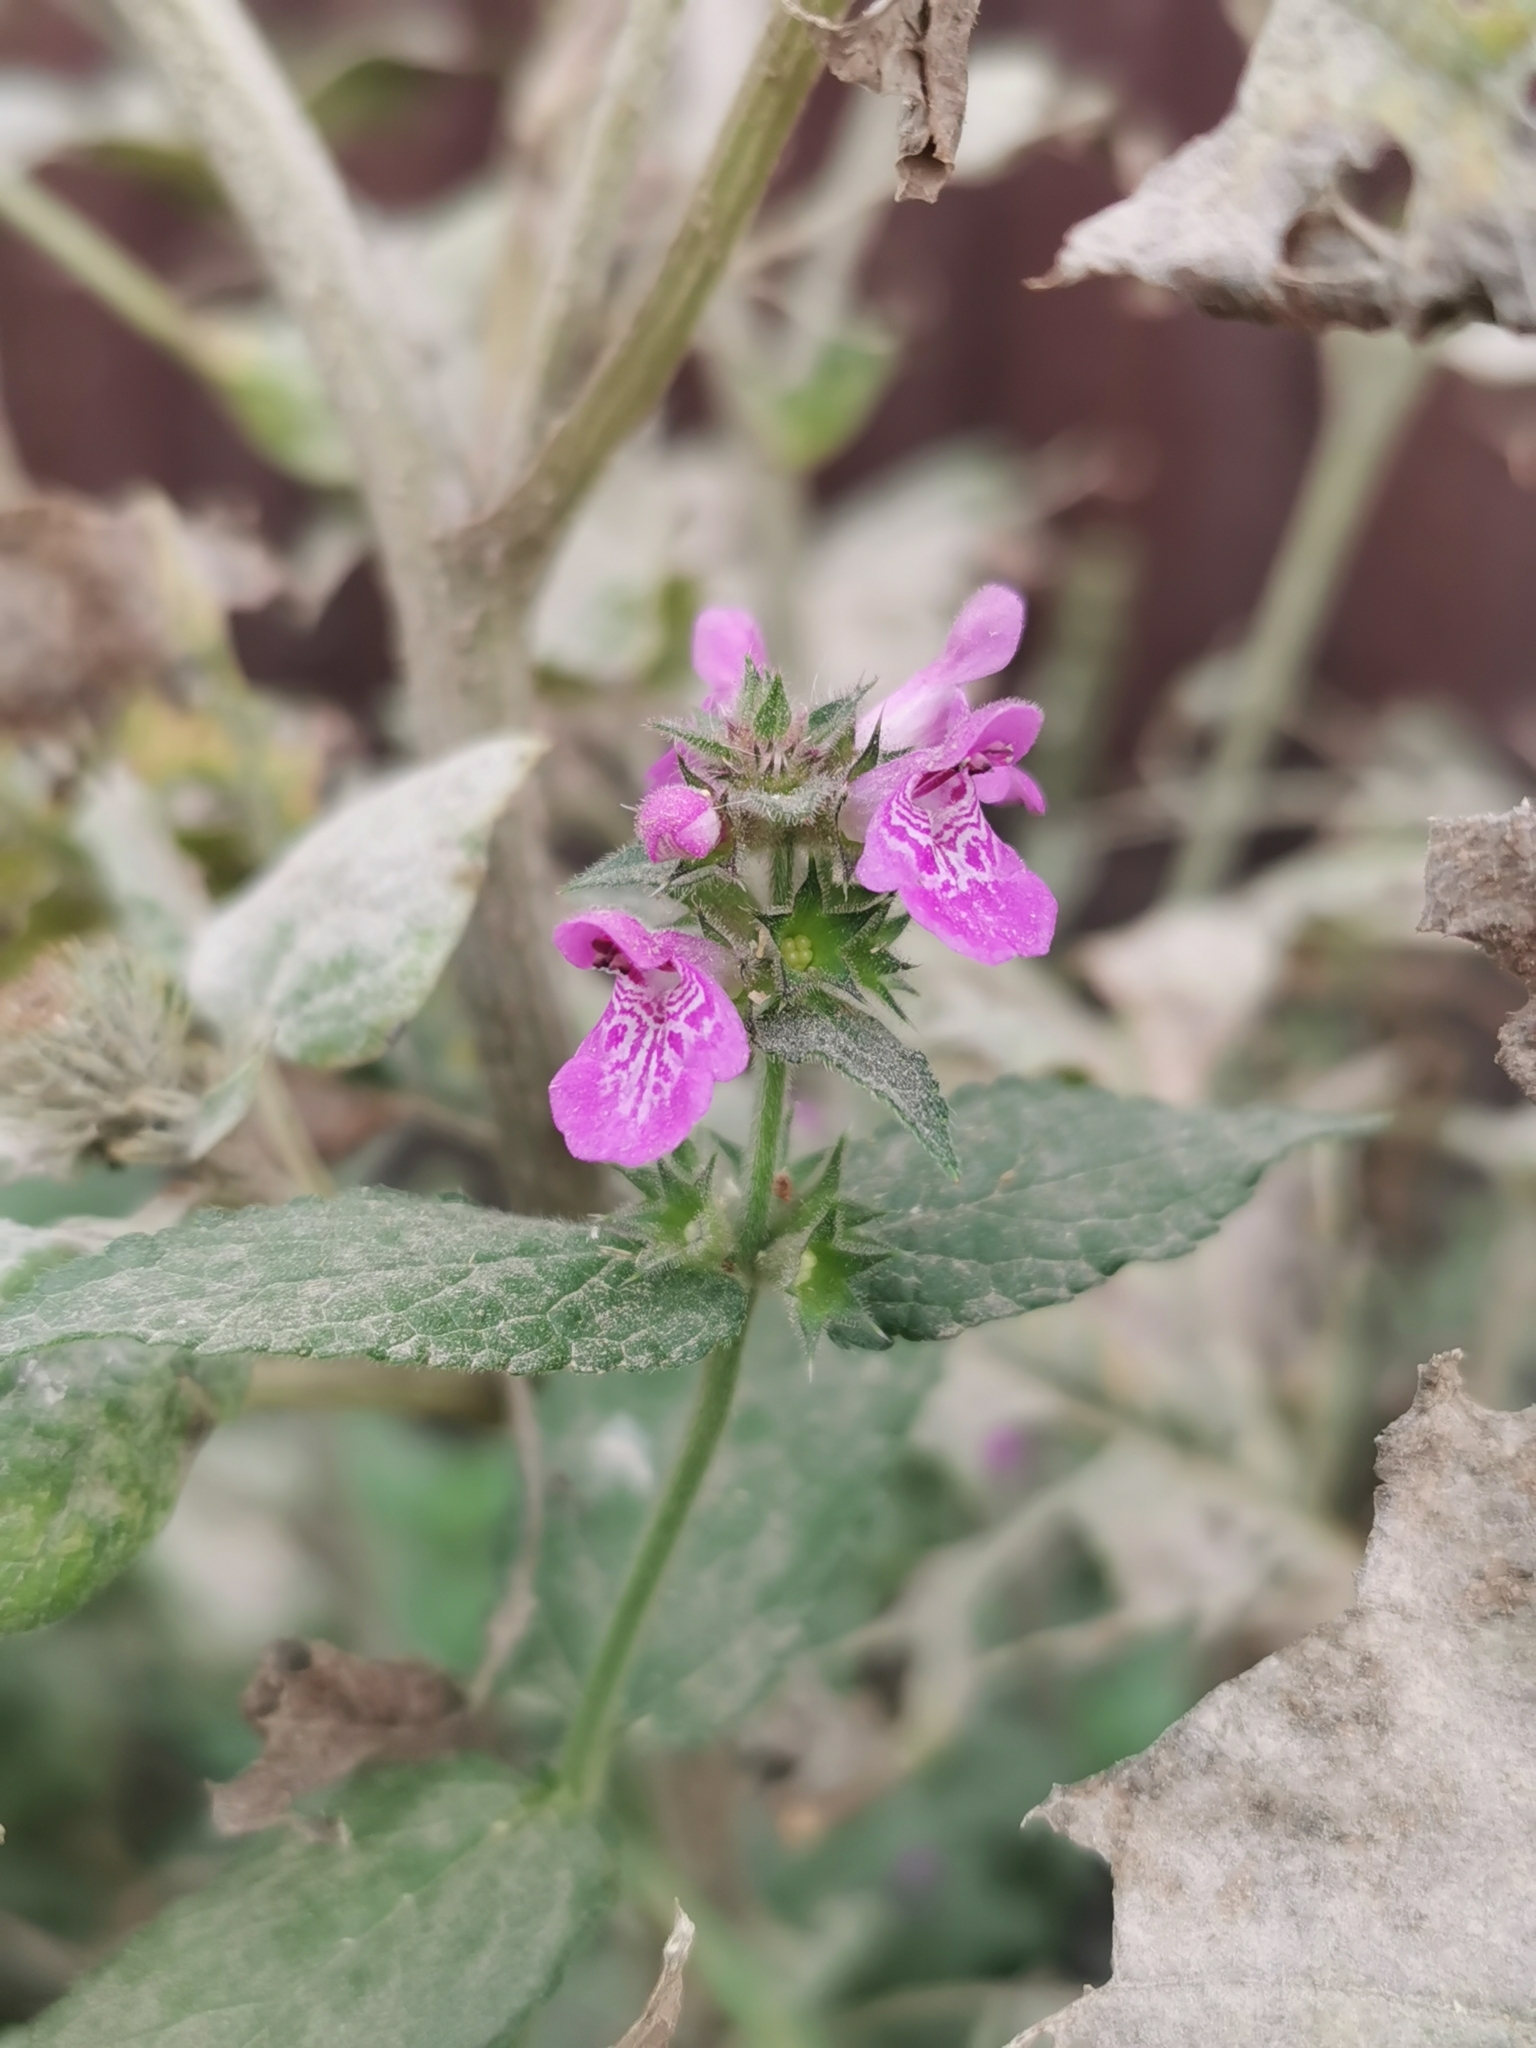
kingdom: Plantae
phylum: Tracheophyta
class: Magnoliopsida
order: Lamiales
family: Lamiaceae
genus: Stachys
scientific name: Stachys palustris
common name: Marsh woundwort
